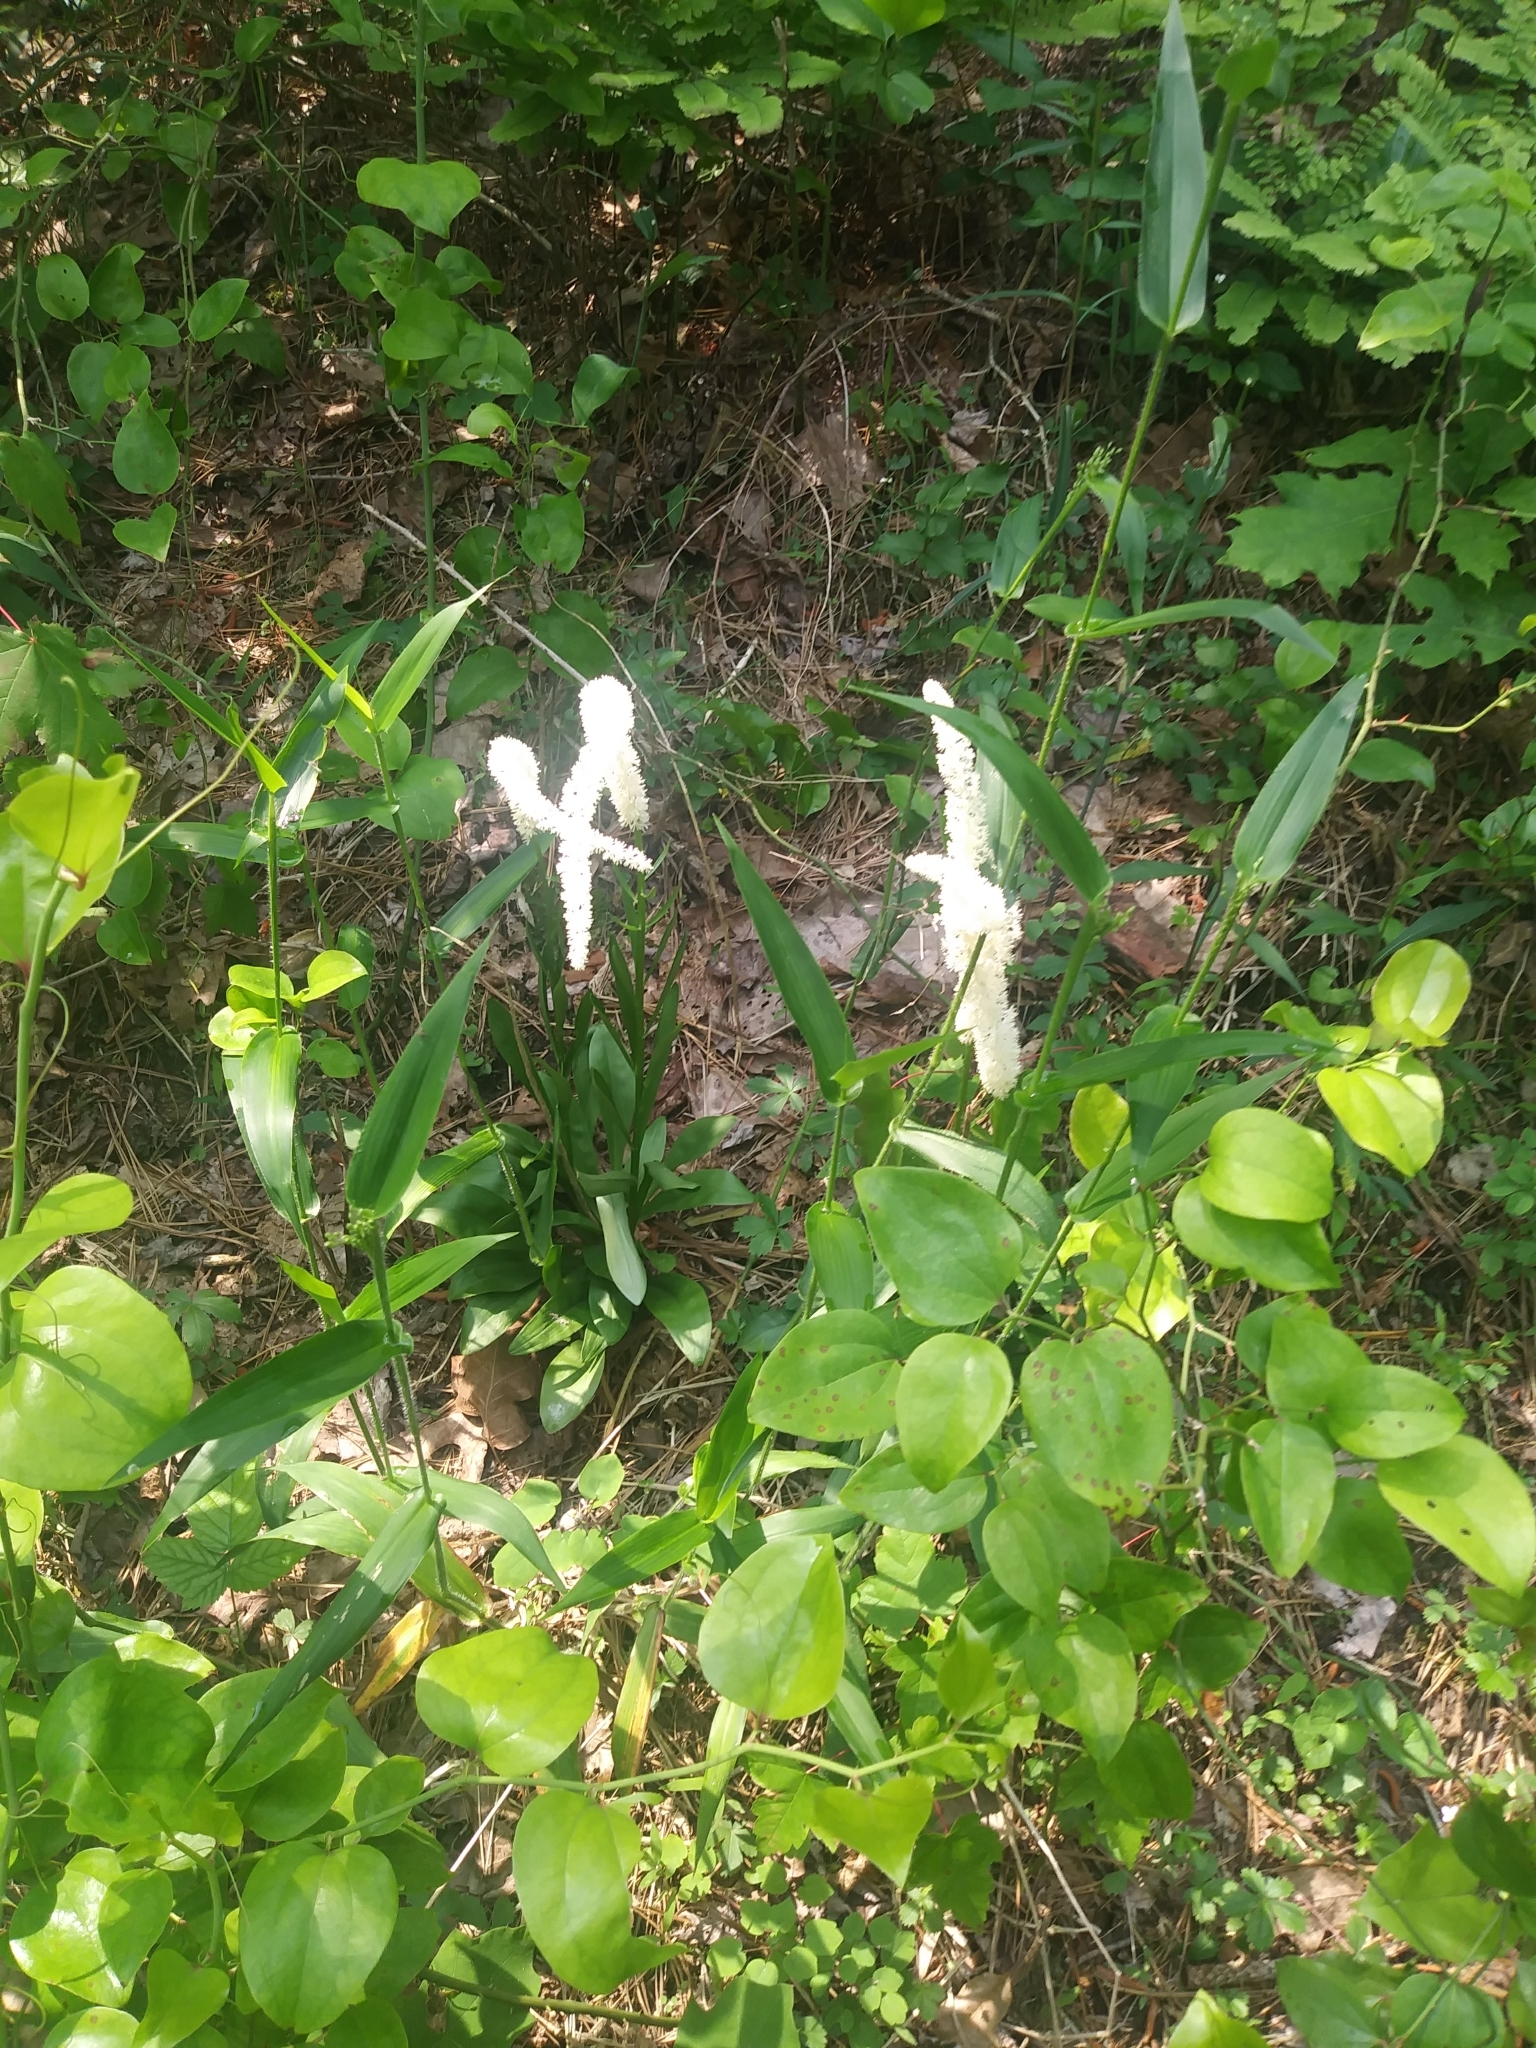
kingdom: Plantae
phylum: Tracheophyta
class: Liliopsida
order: Liliales
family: Melanthiaceae
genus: Chamaelirium
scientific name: Chamaelirium luteum
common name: Fairy-wand
